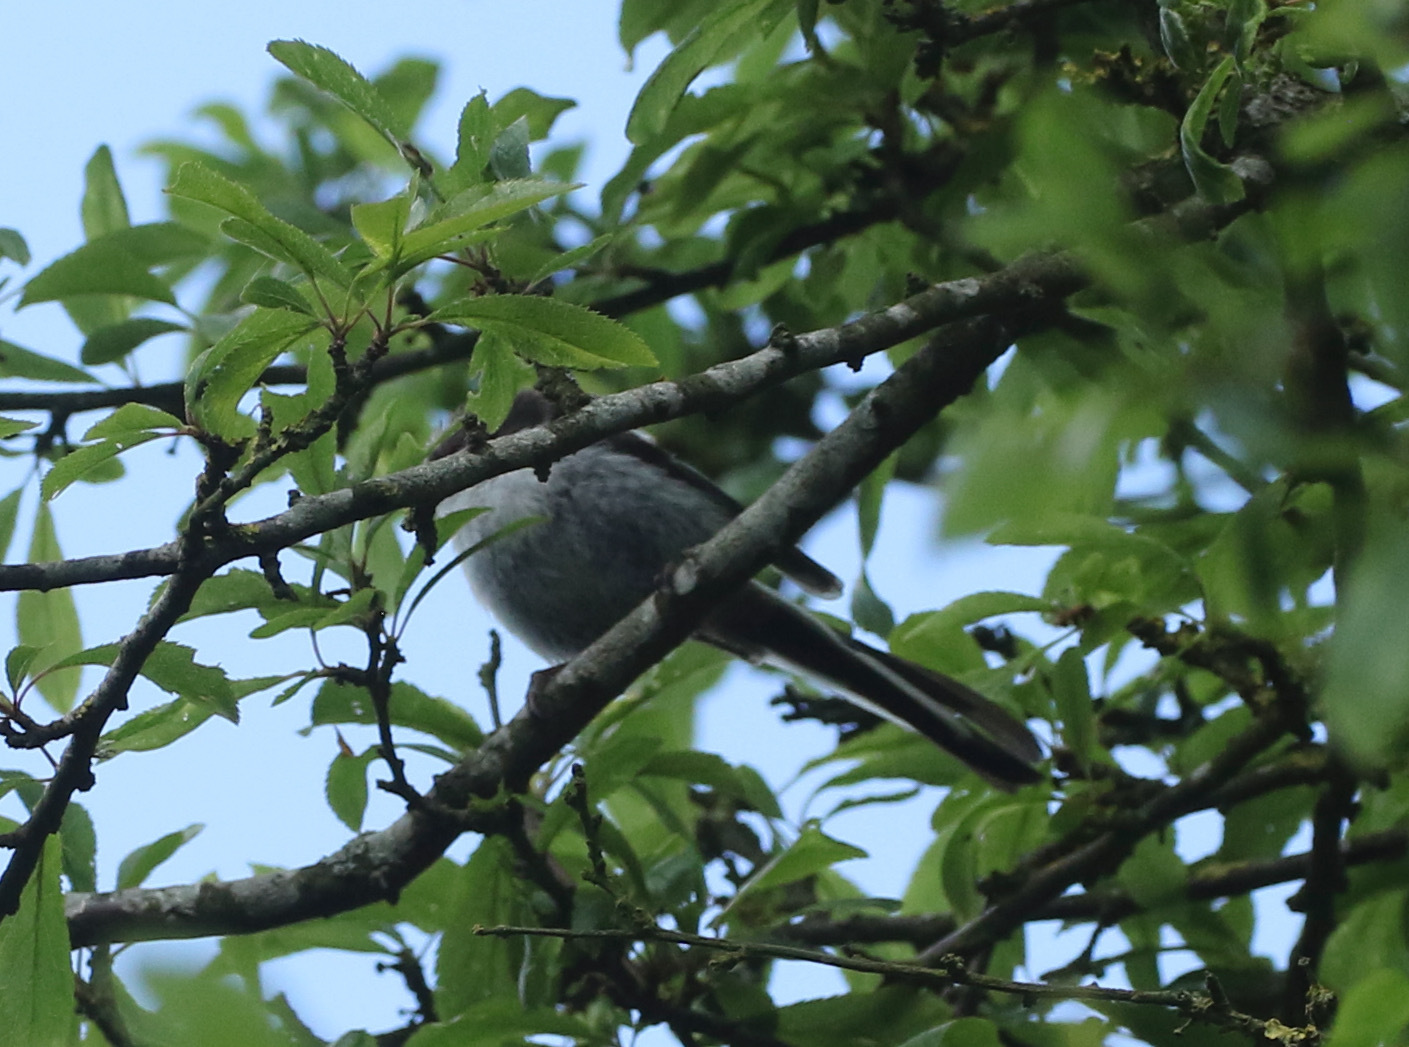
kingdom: Animalia
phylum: Chordata
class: Aves
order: Passeriformes
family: Aegithalidae
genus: Aegithalos
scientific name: Aegithalos caudatus
